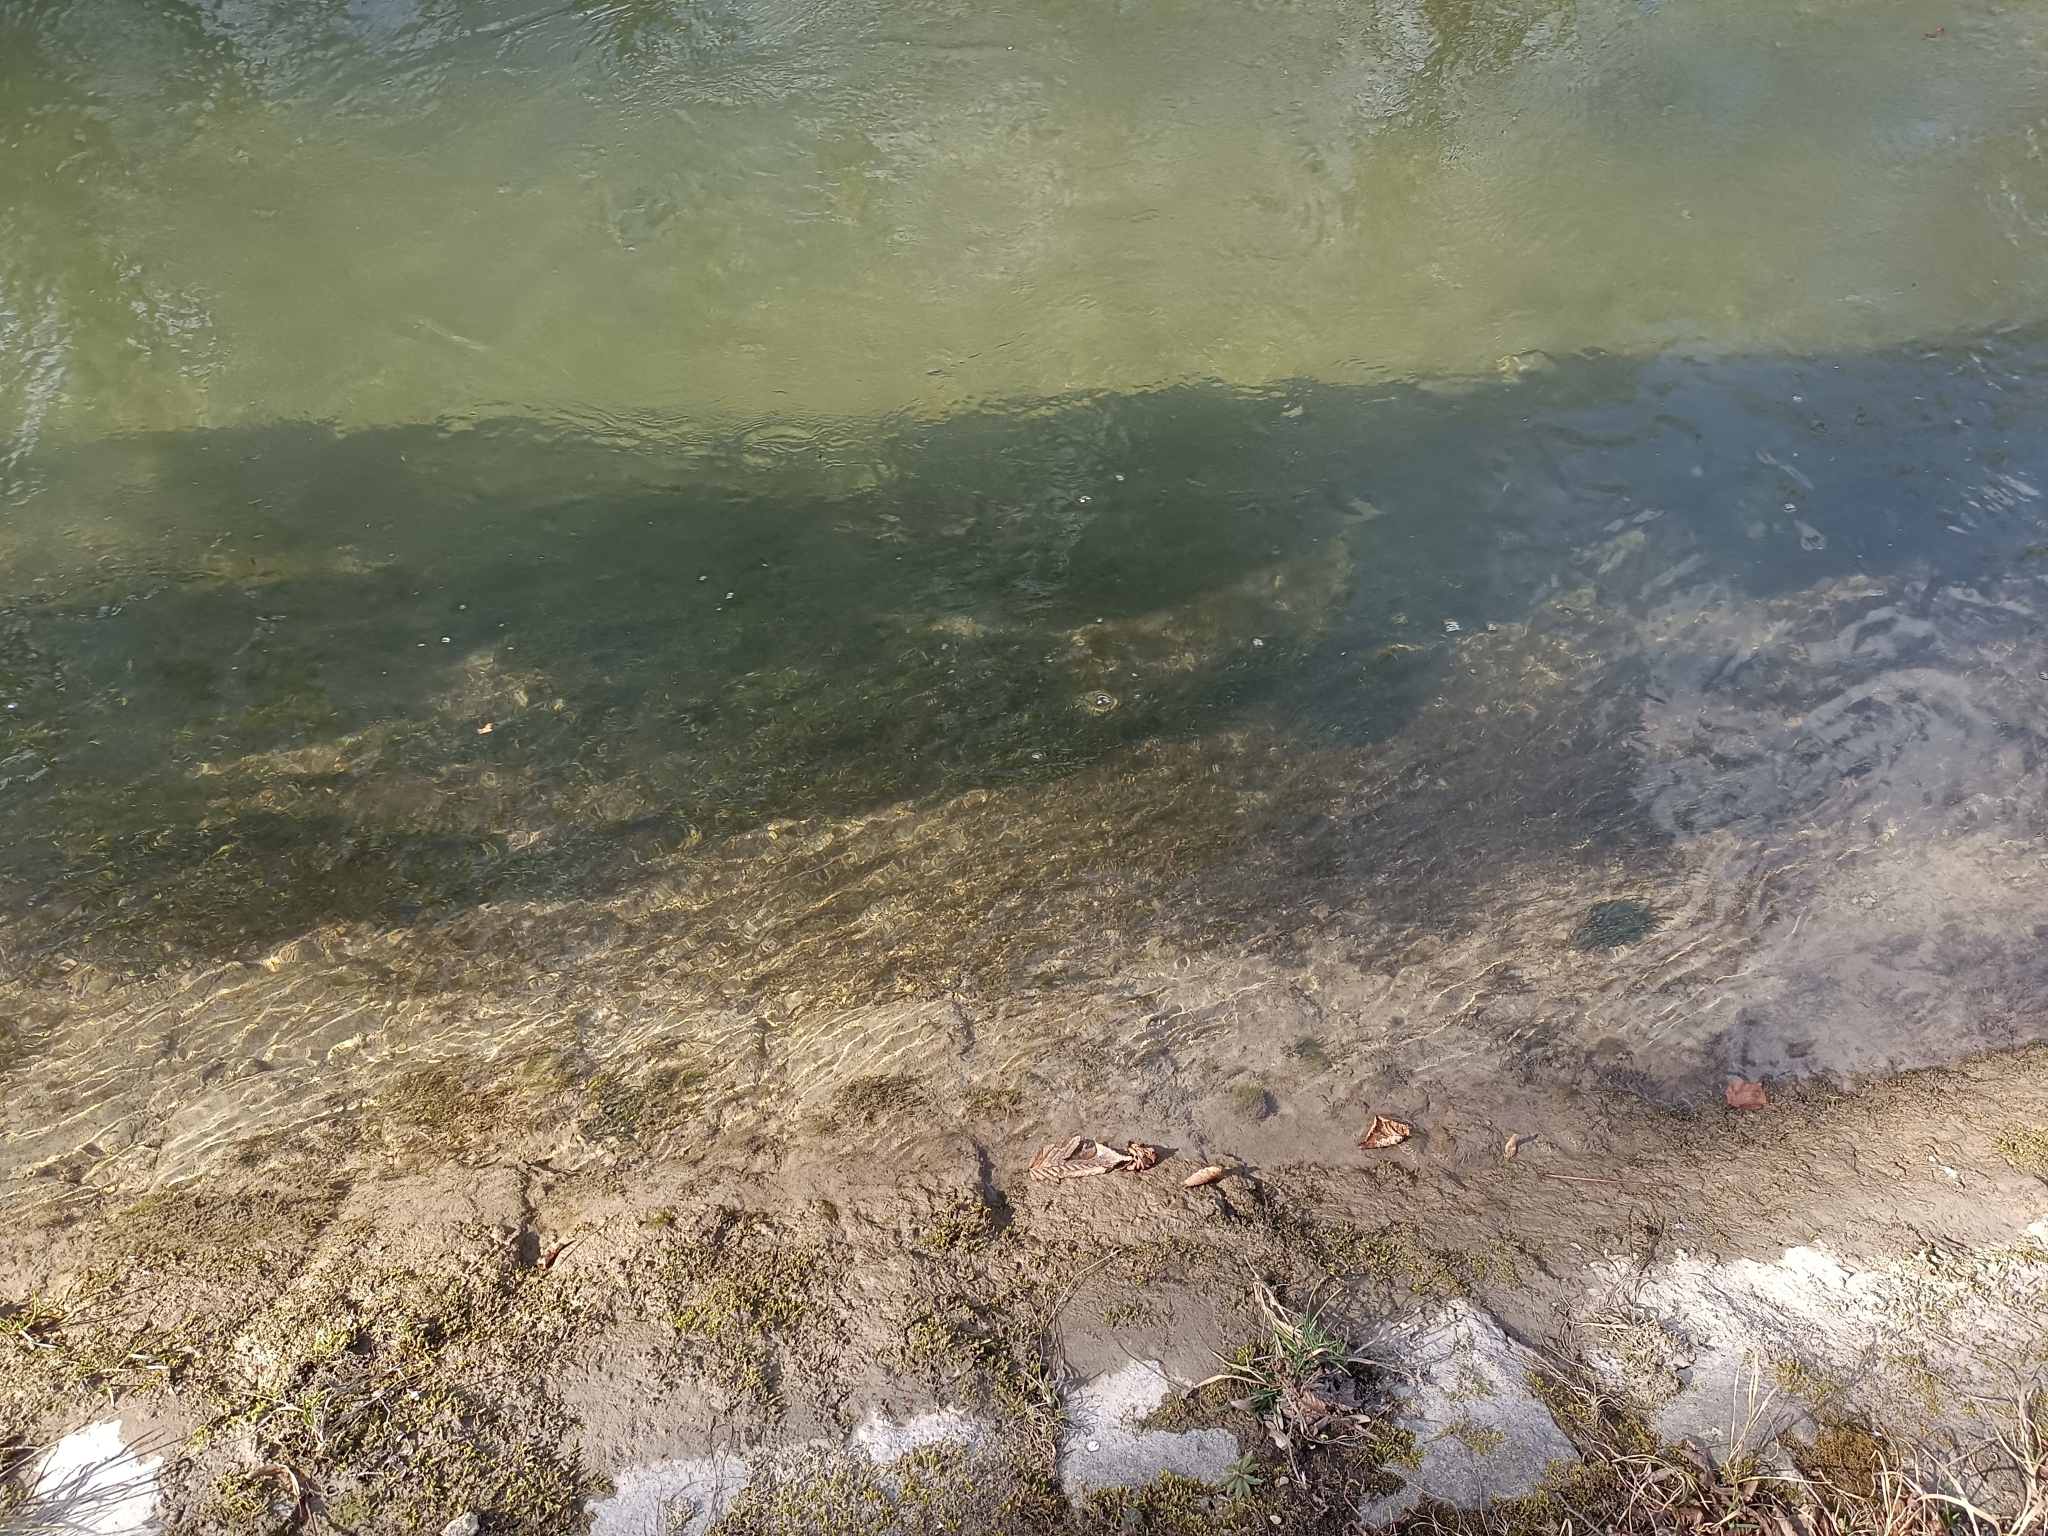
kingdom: Plantae
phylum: Bryophyta
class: Bryopsida
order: Hypnales
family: Fontinalaceae
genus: Fontinalis
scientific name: Fontinalis antipyretica
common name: Greater water-moss
